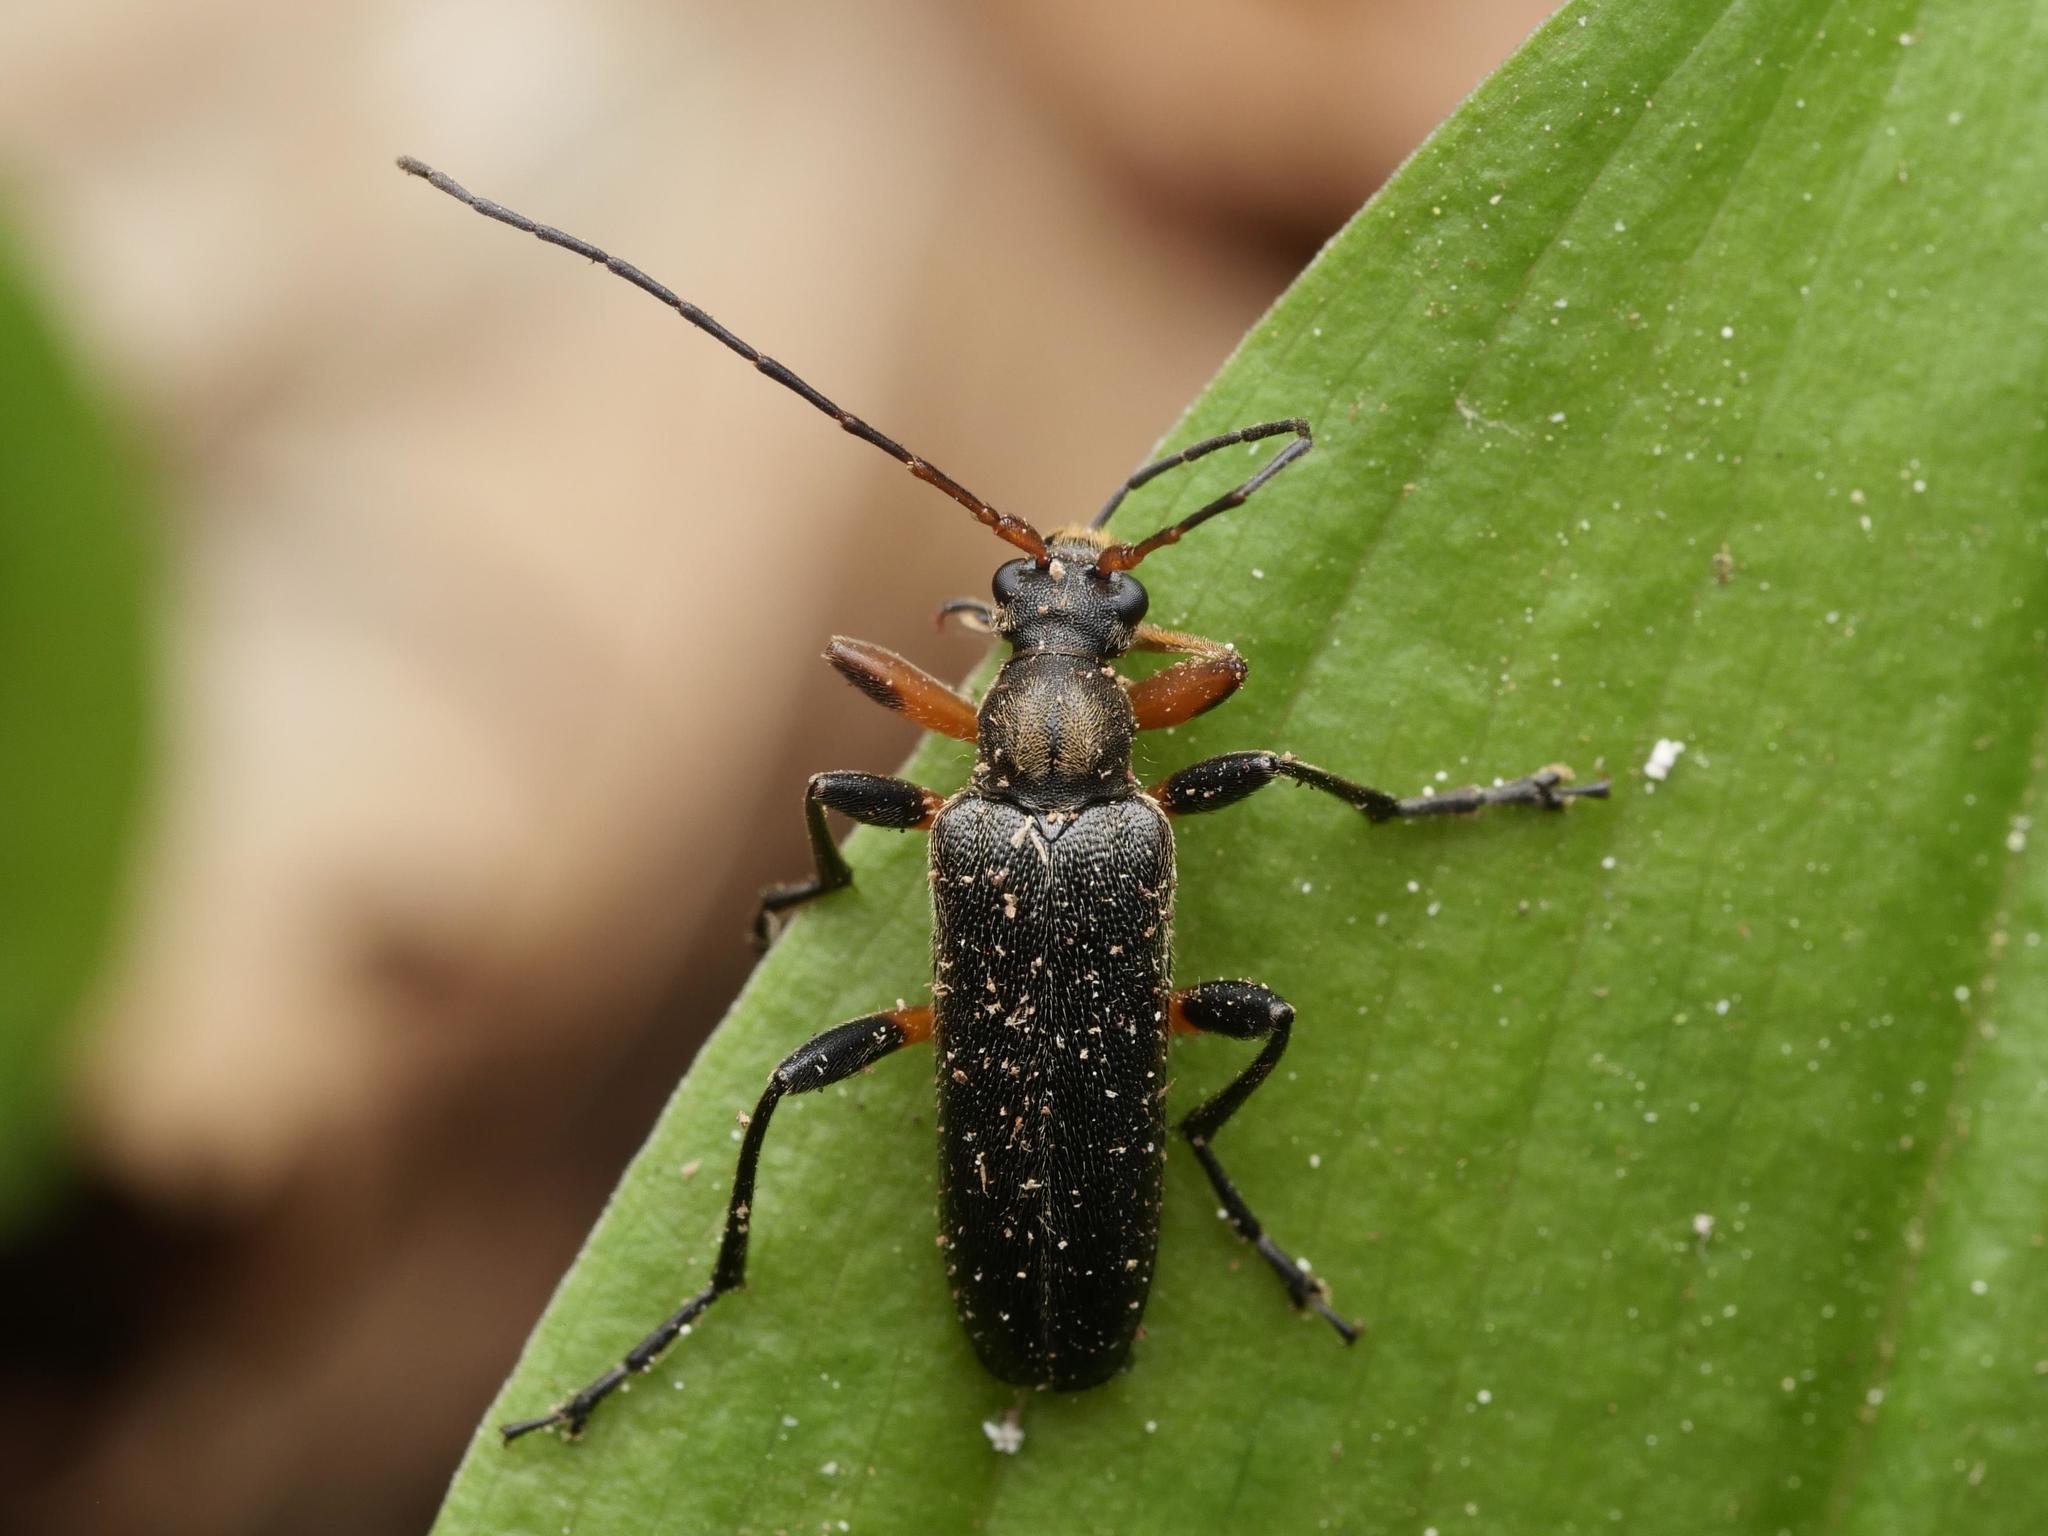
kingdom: Animalia
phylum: Arthropoda
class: Insecta
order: Coleoptera
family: Cerambycidae
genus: Cortodera
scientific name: Cortodera femorata
